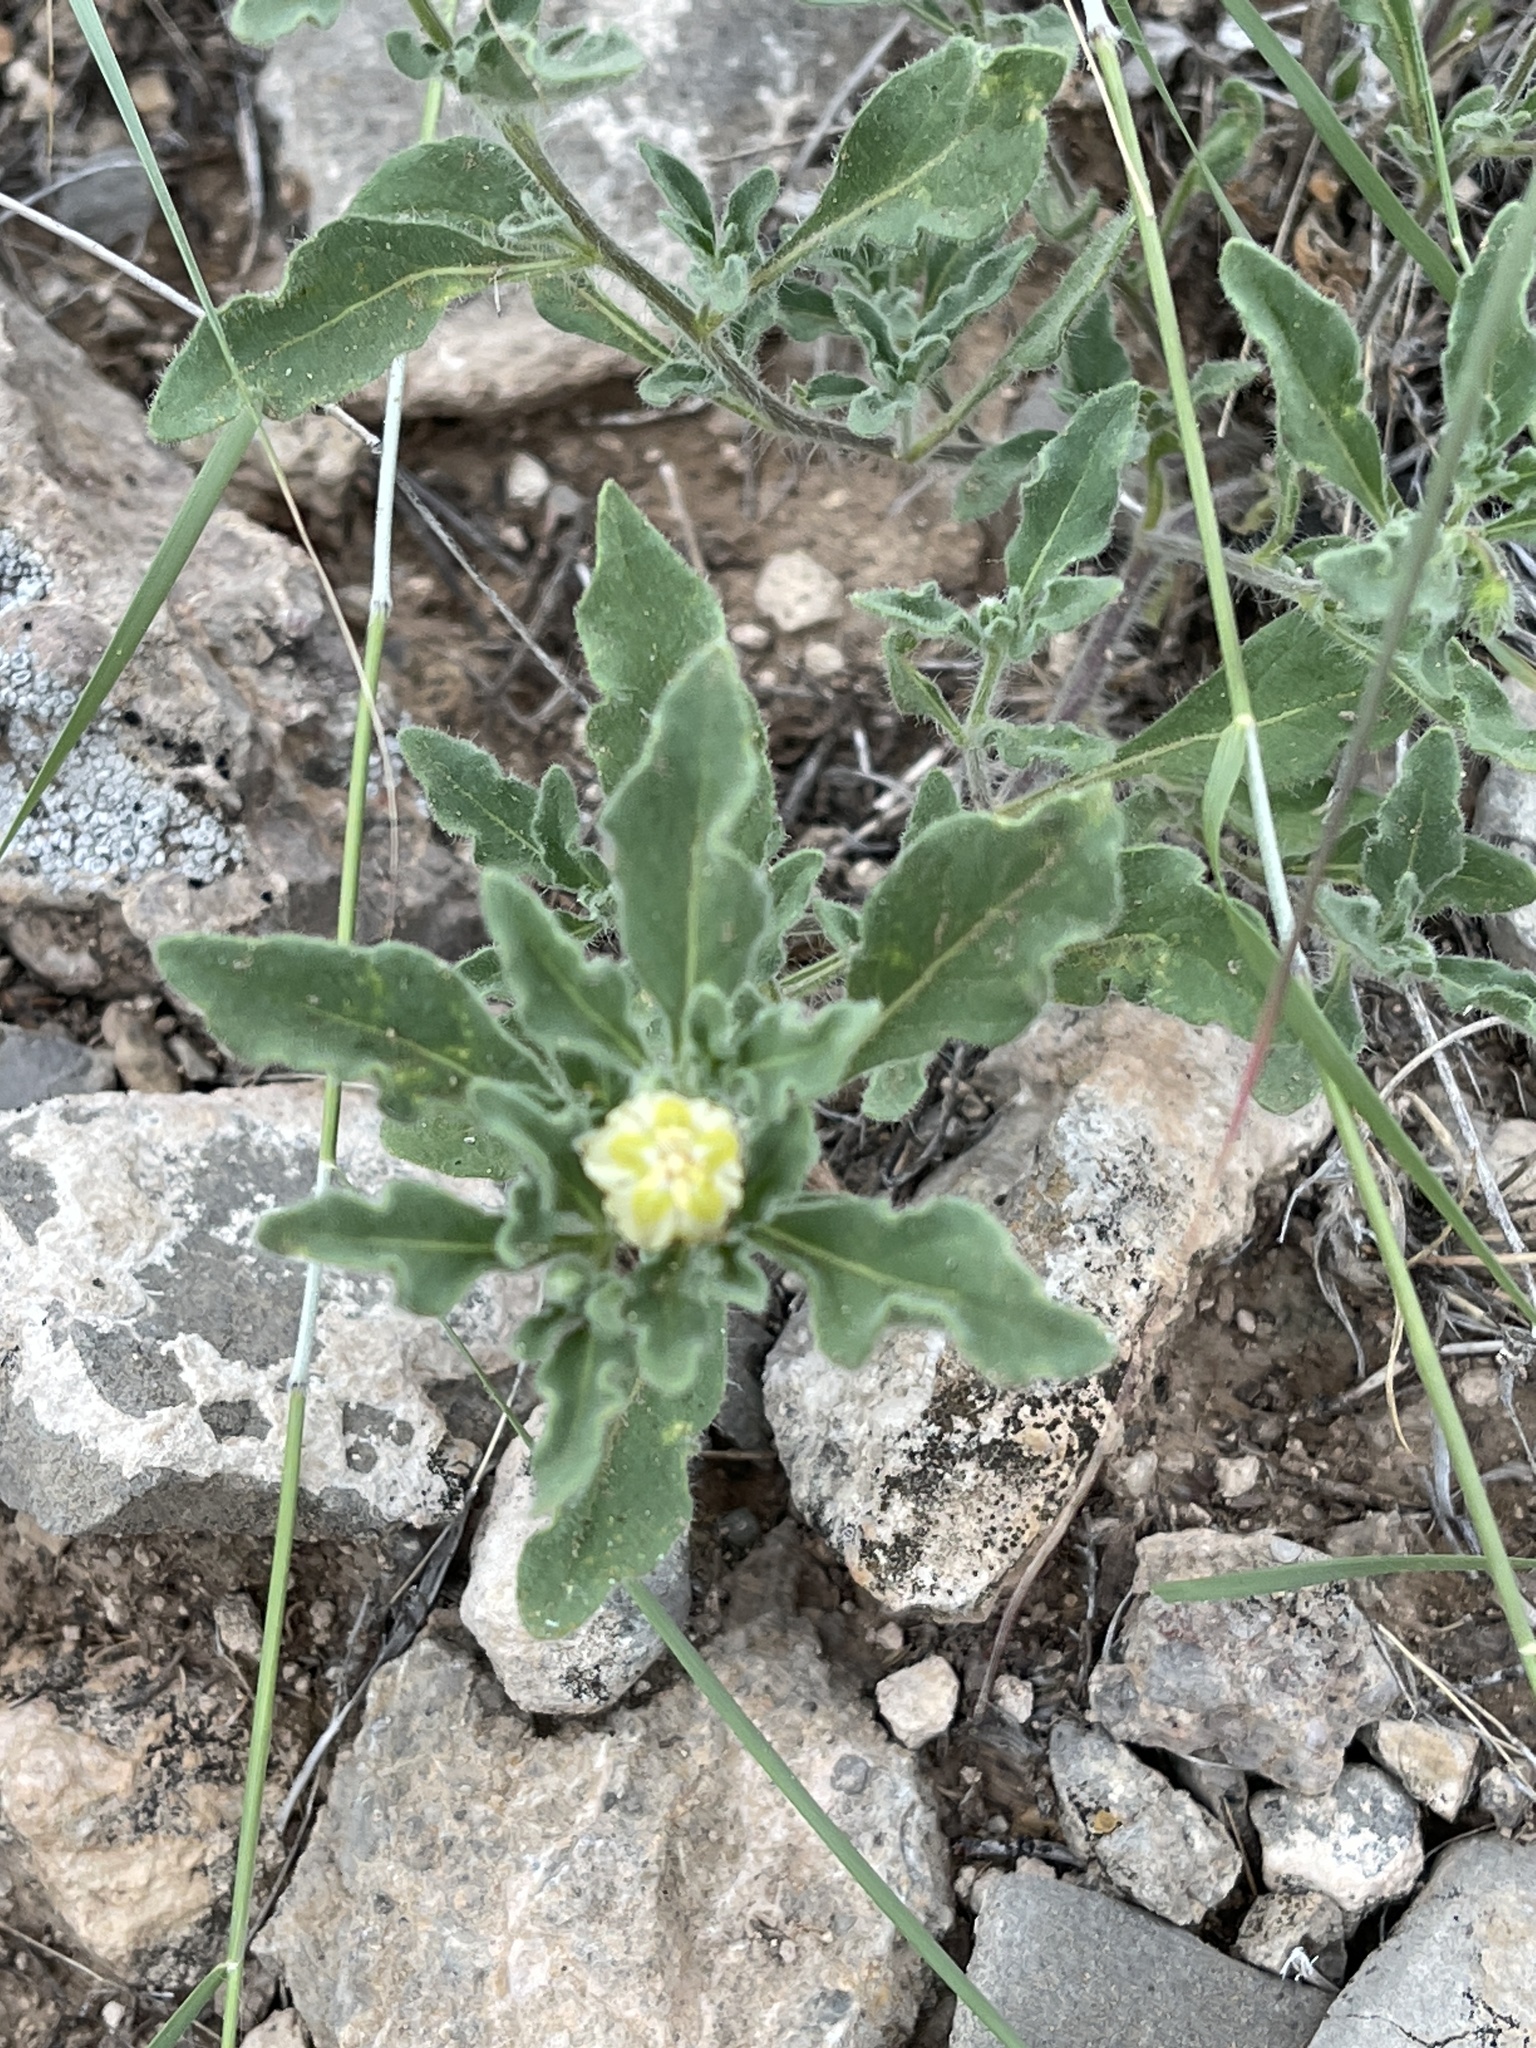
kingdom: Plantae
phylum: Tracheophyta
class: Magnoliopsida
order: Solanales
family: Solanaceae
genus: Chamaesaracha
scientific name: Chamaesaracha sordida
